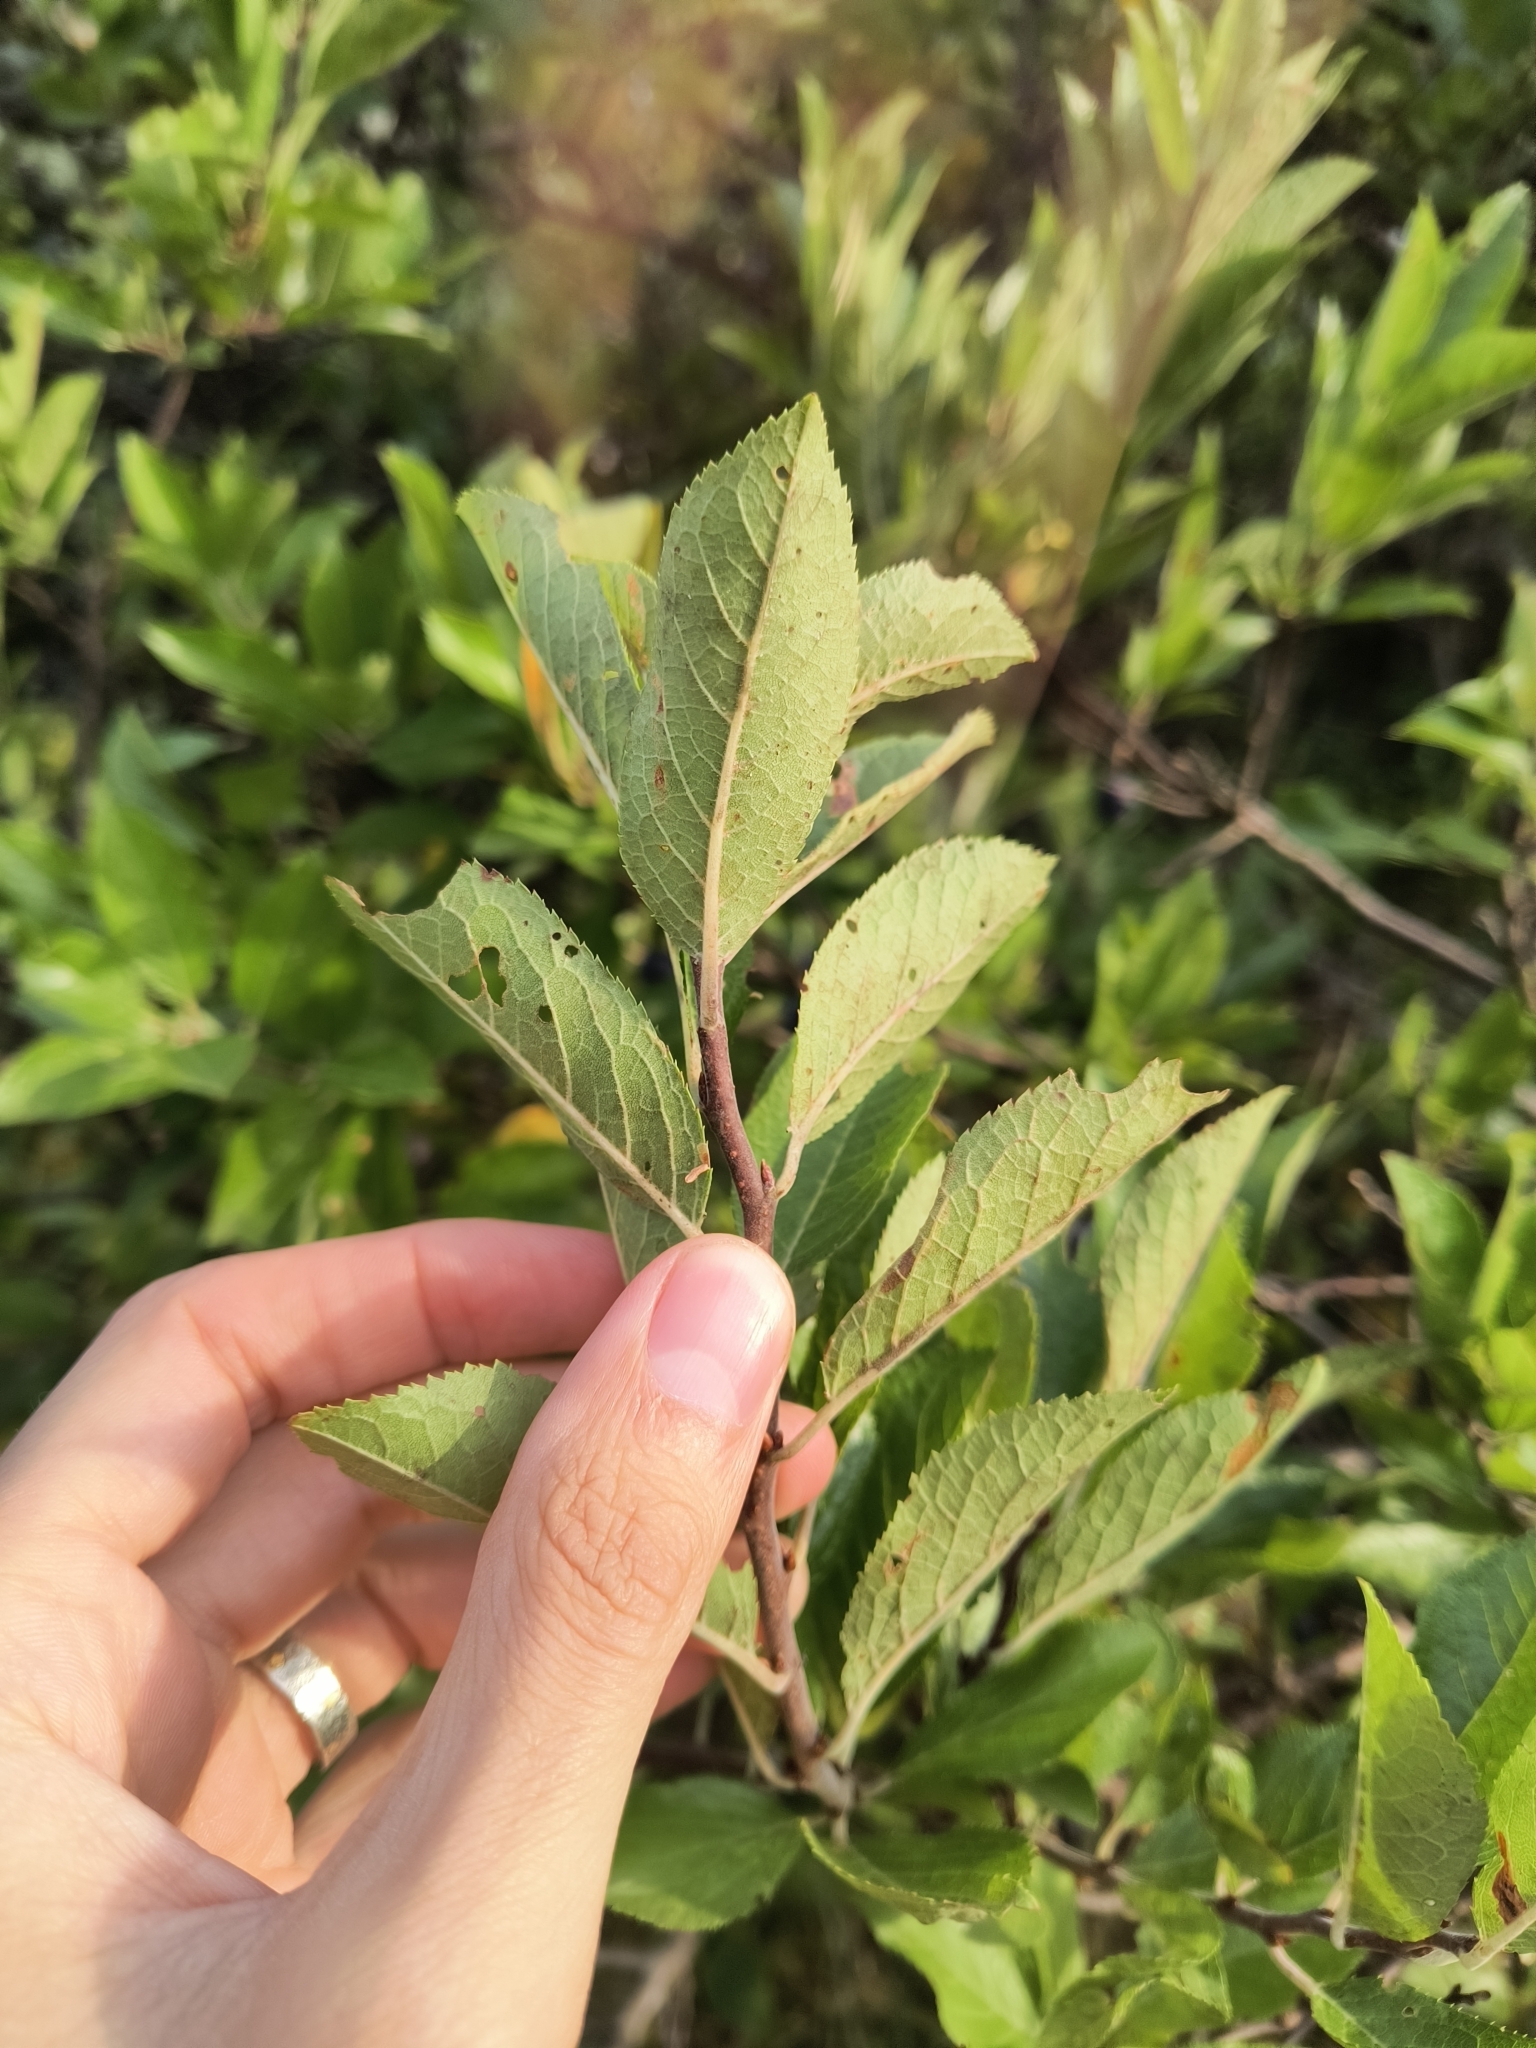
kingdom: Plantae
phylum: Tracheophyta
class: Magnoliopsida
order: Rosales
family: Rosaceae
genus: Prunus
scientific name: Prunus maritima
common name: Beach plum
